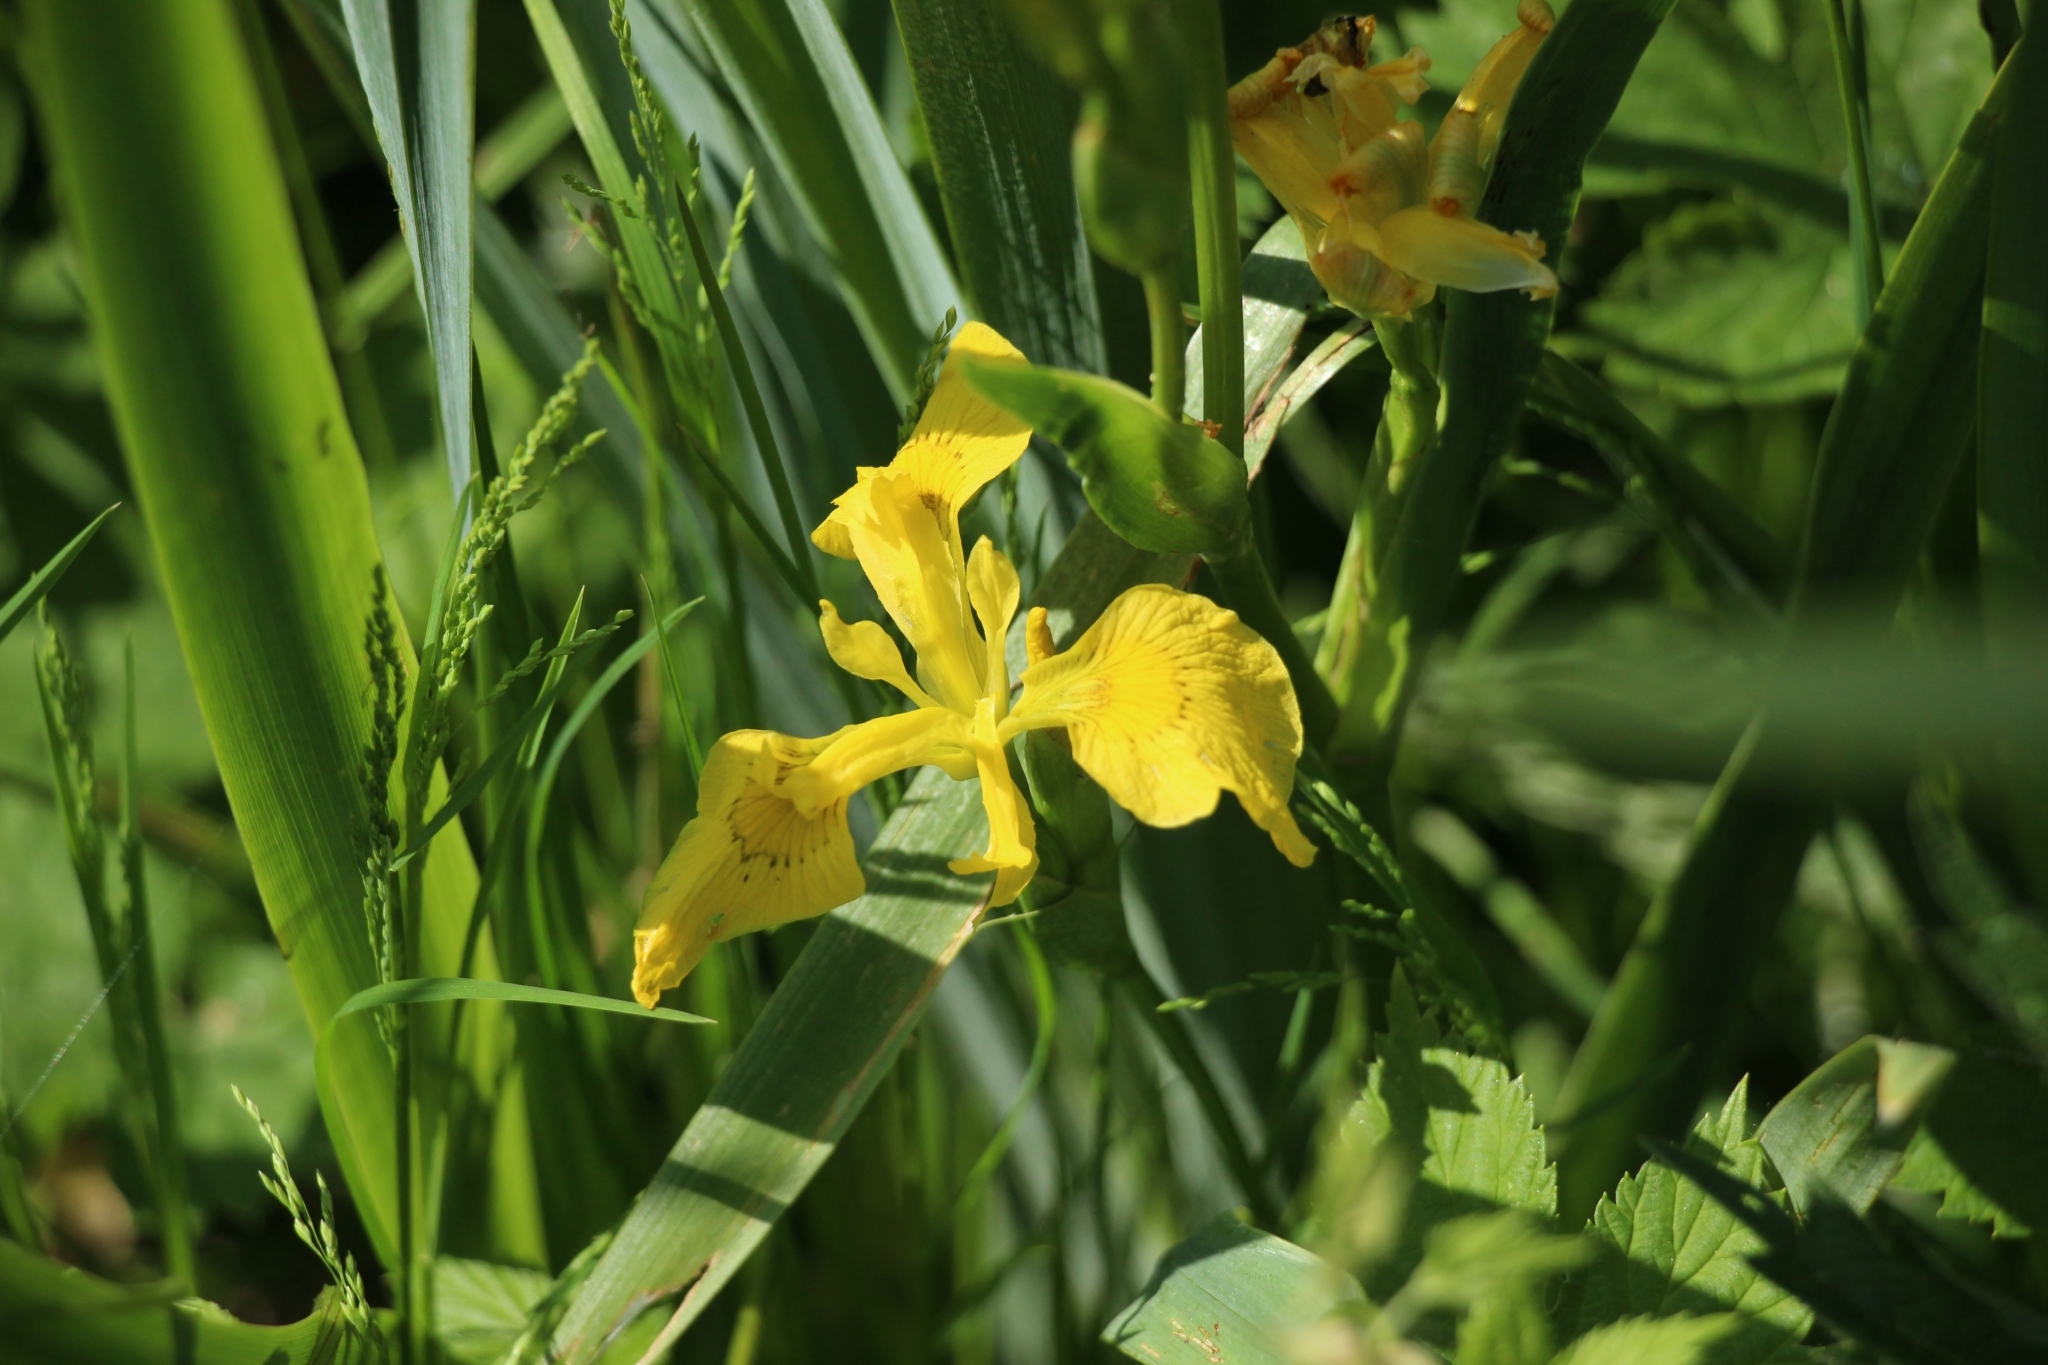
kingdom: Plantae
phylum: Tracheophyta
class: Liliopsida
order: Asparagales
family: Iridaceae
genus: Iris
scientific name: Iris pseudacorus
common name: Yellow flag
